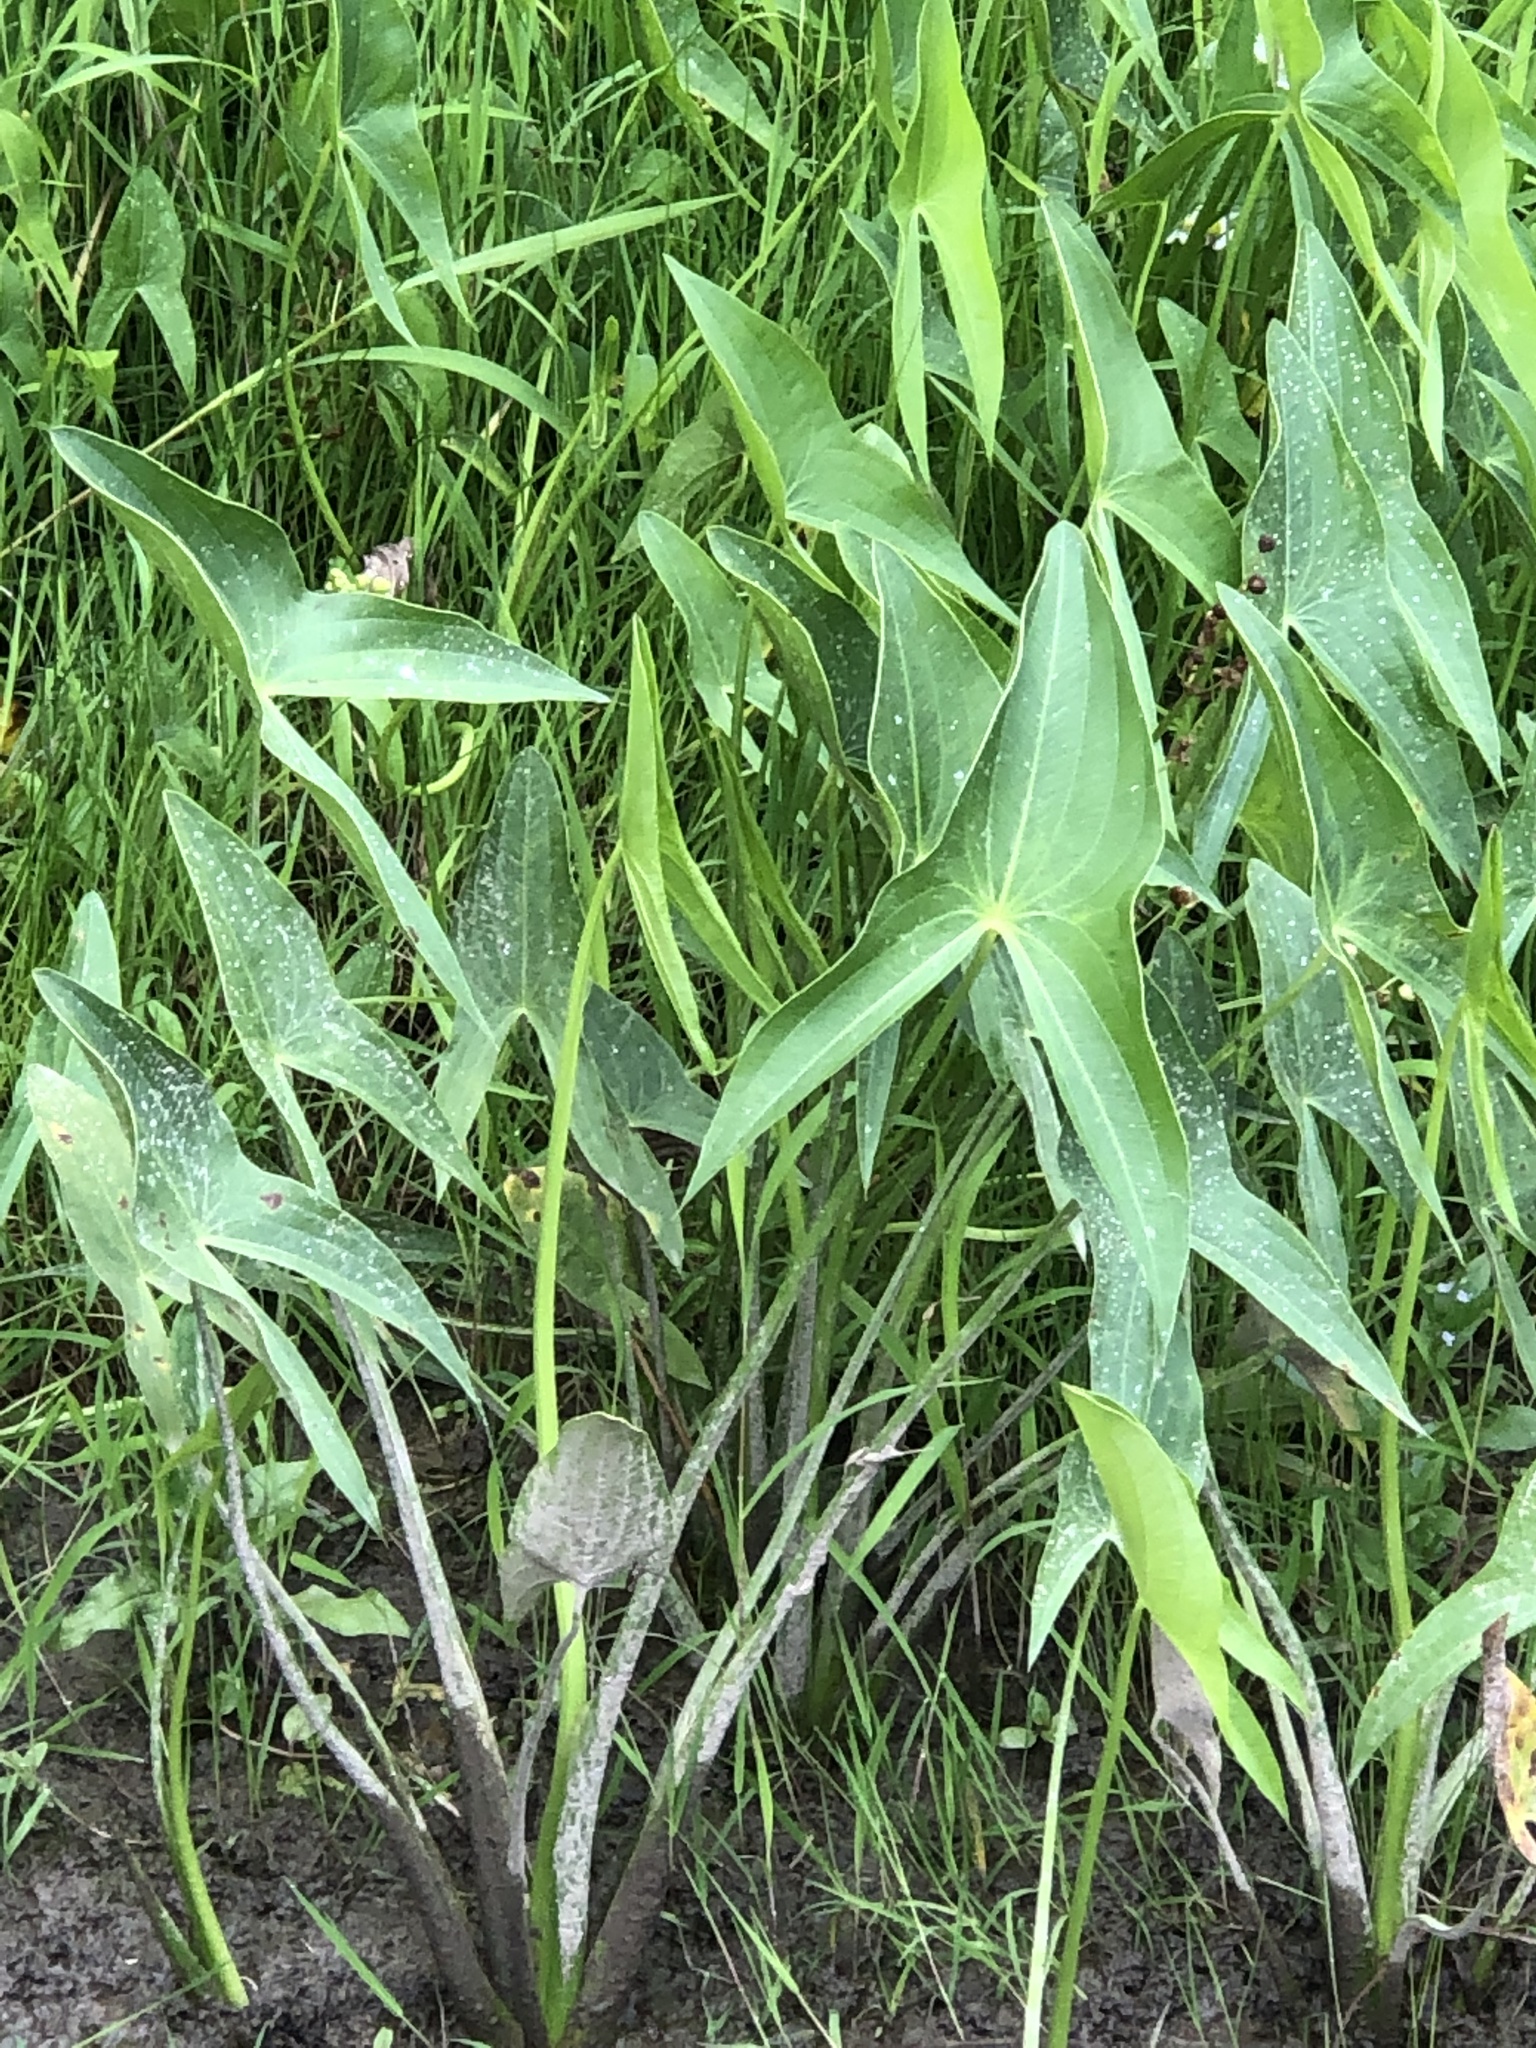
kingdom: Plantae
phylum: Tracheophyta
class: Liliopsida
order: Alismatales
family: Alismataceae
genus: Sagittaria
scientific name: Sagittaria latifolia
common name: Duck-potato
